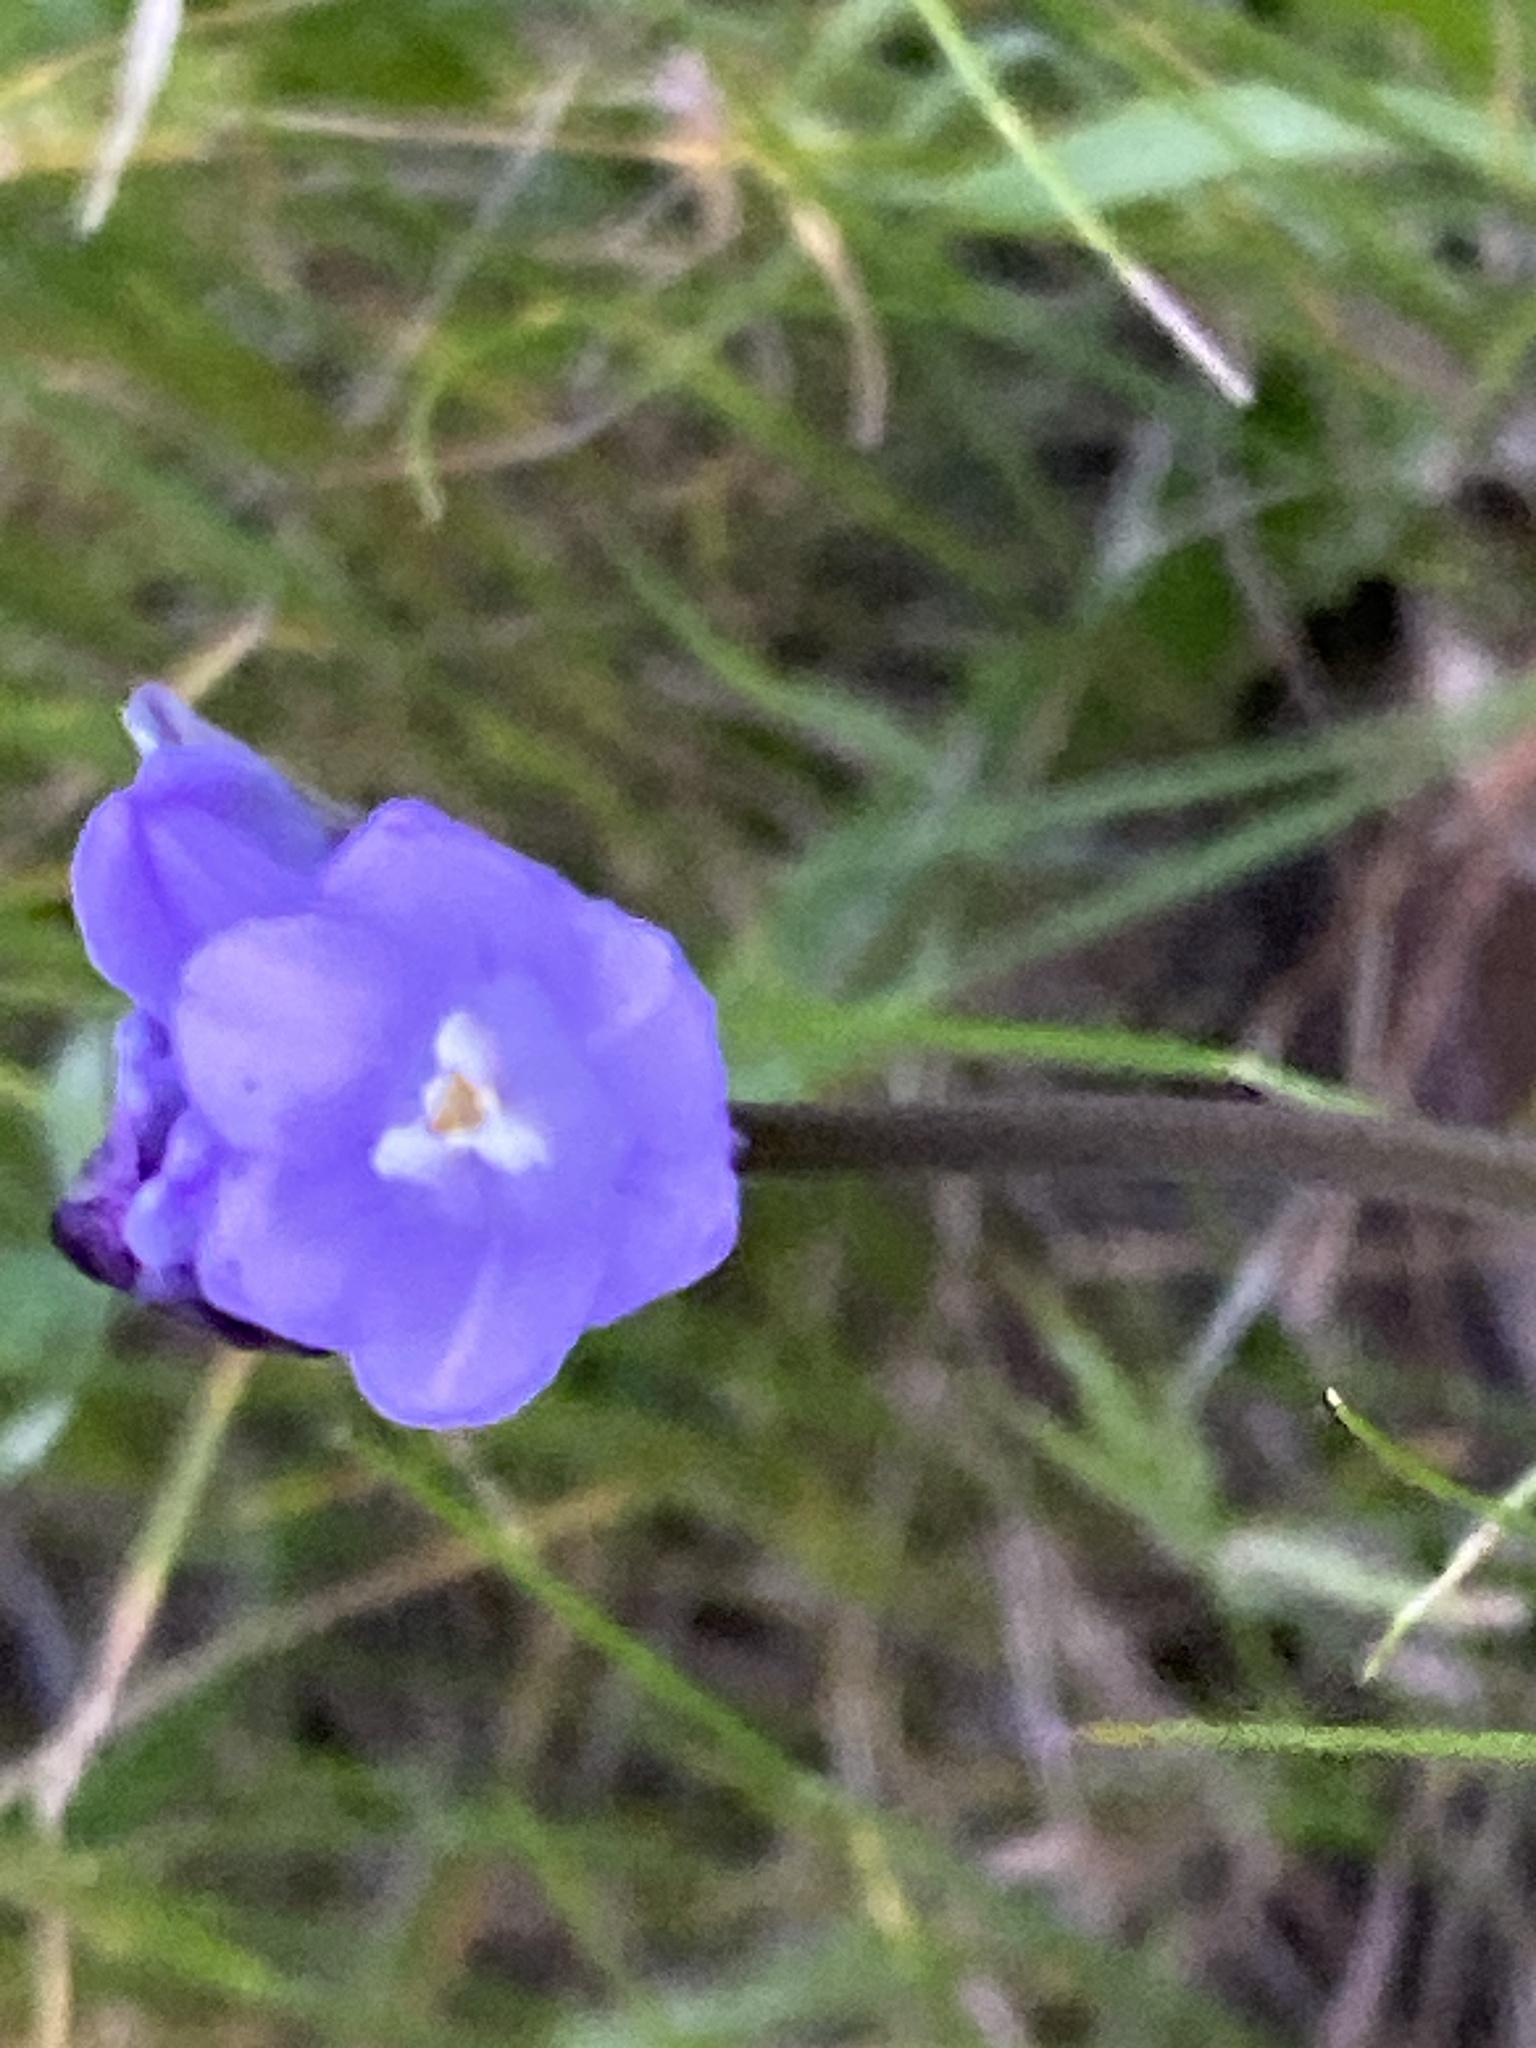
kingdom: Plantae
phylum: Tracheophyta
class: Liliopsida
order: Asparagales
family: Asparagaceae
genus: Dipterostemon
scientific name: Dipterostemon capitatus
